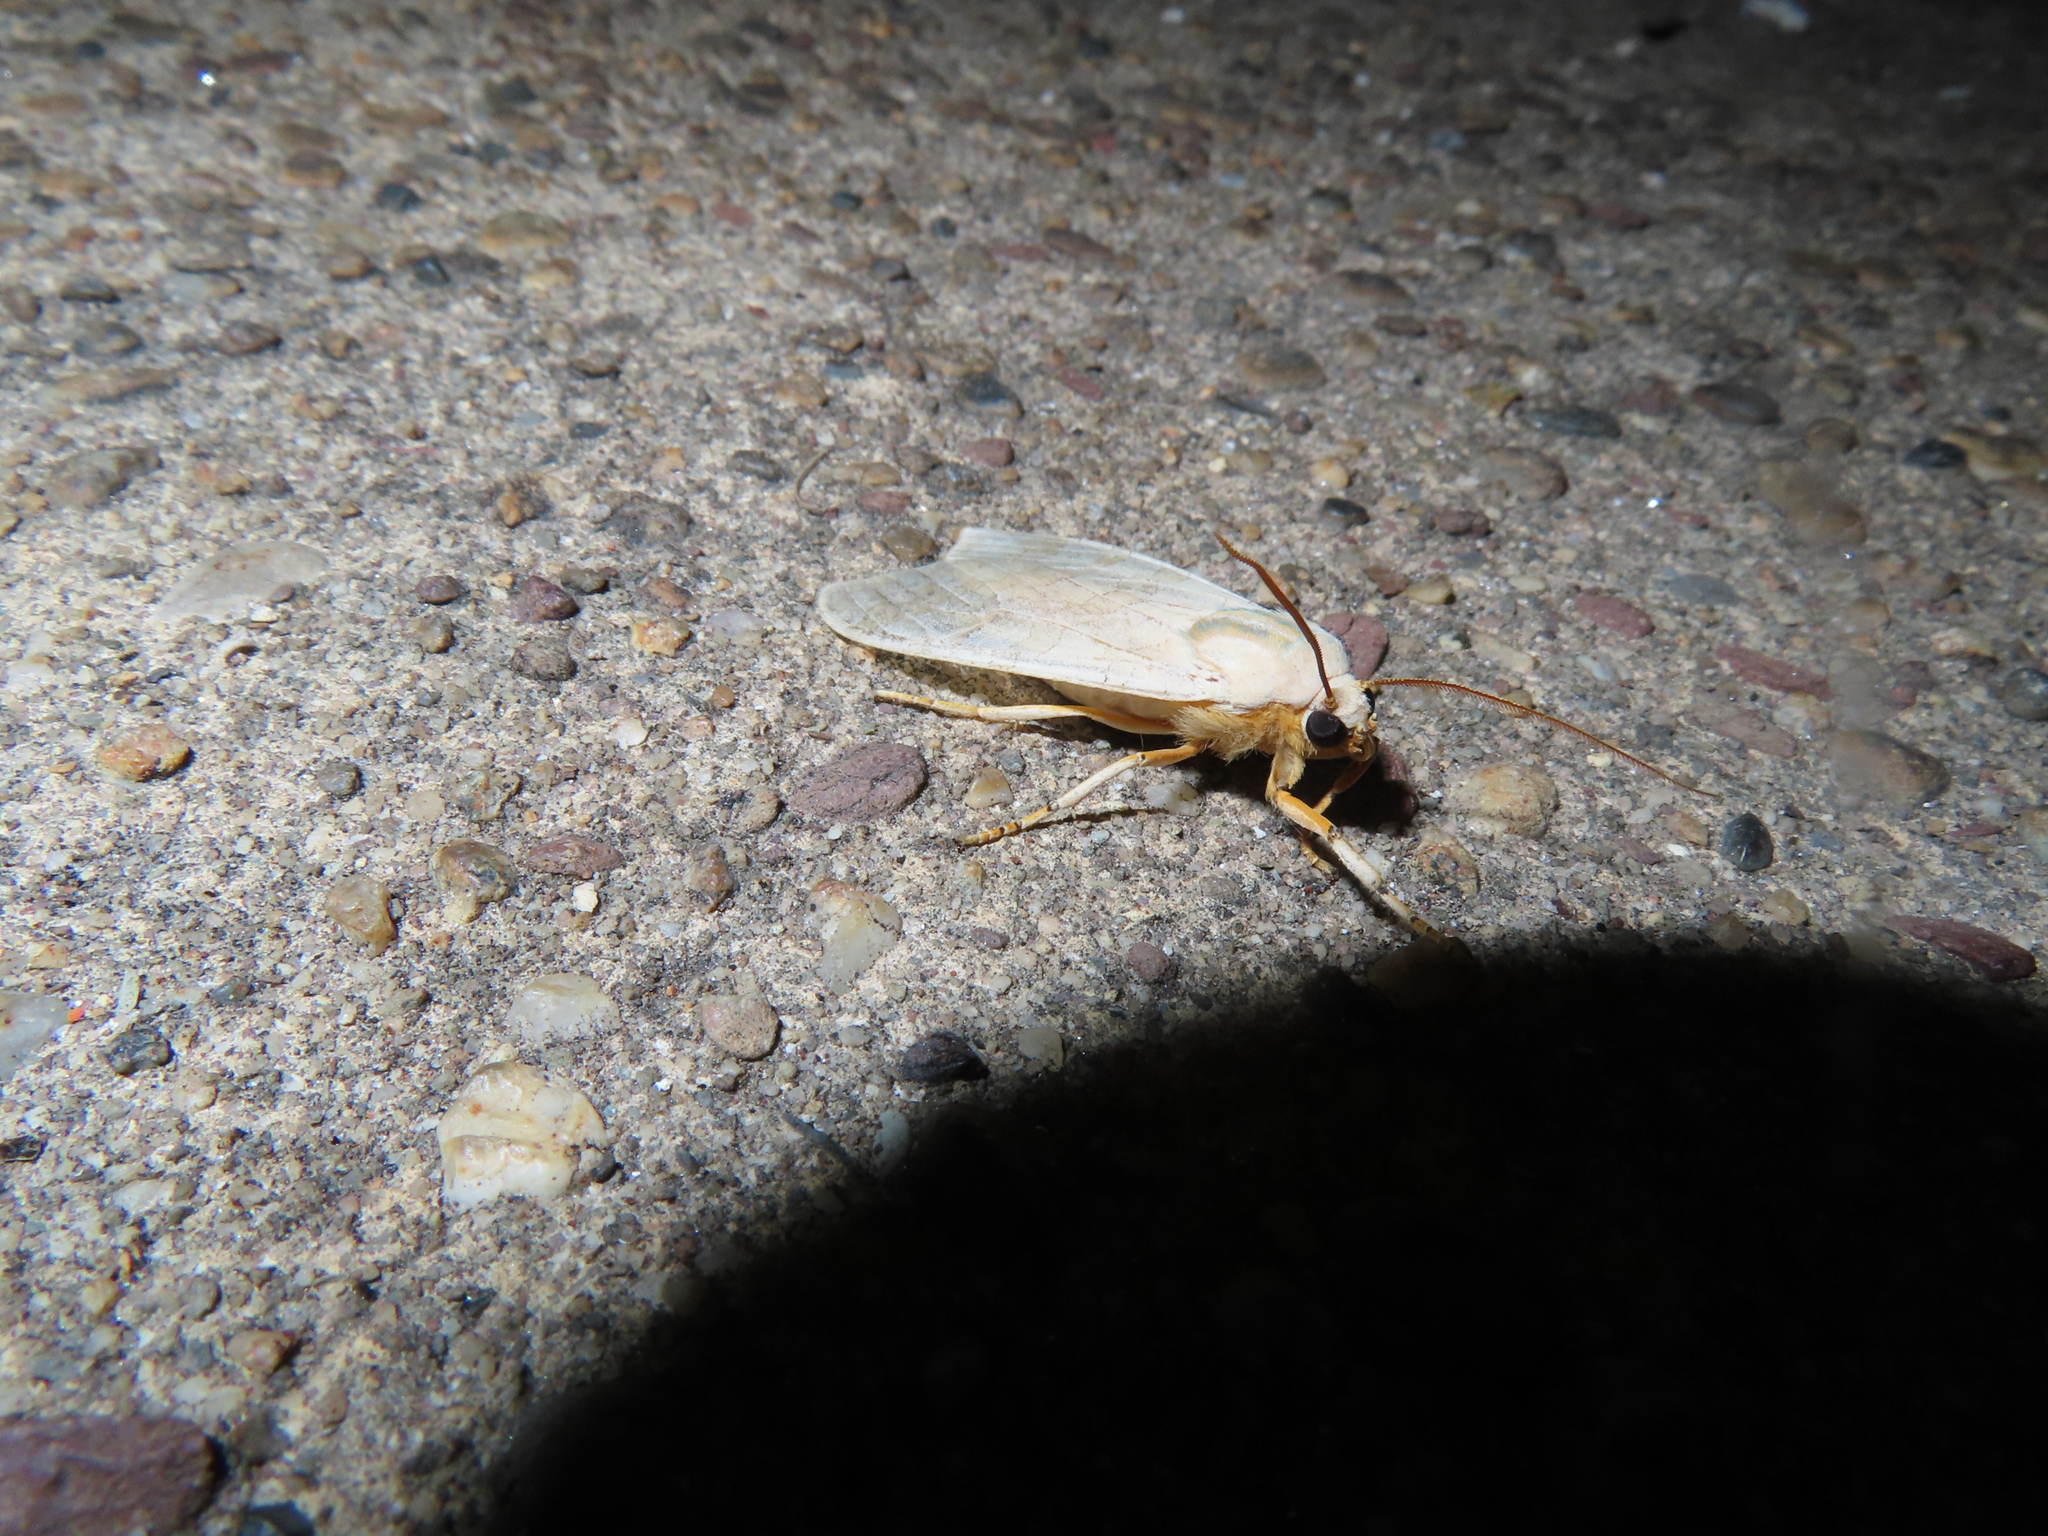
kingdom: Animalia
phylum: Arthropoda
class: Insecta
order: Lepidoptera
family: Erebidae
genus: Halysidota
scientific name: Halysidota
